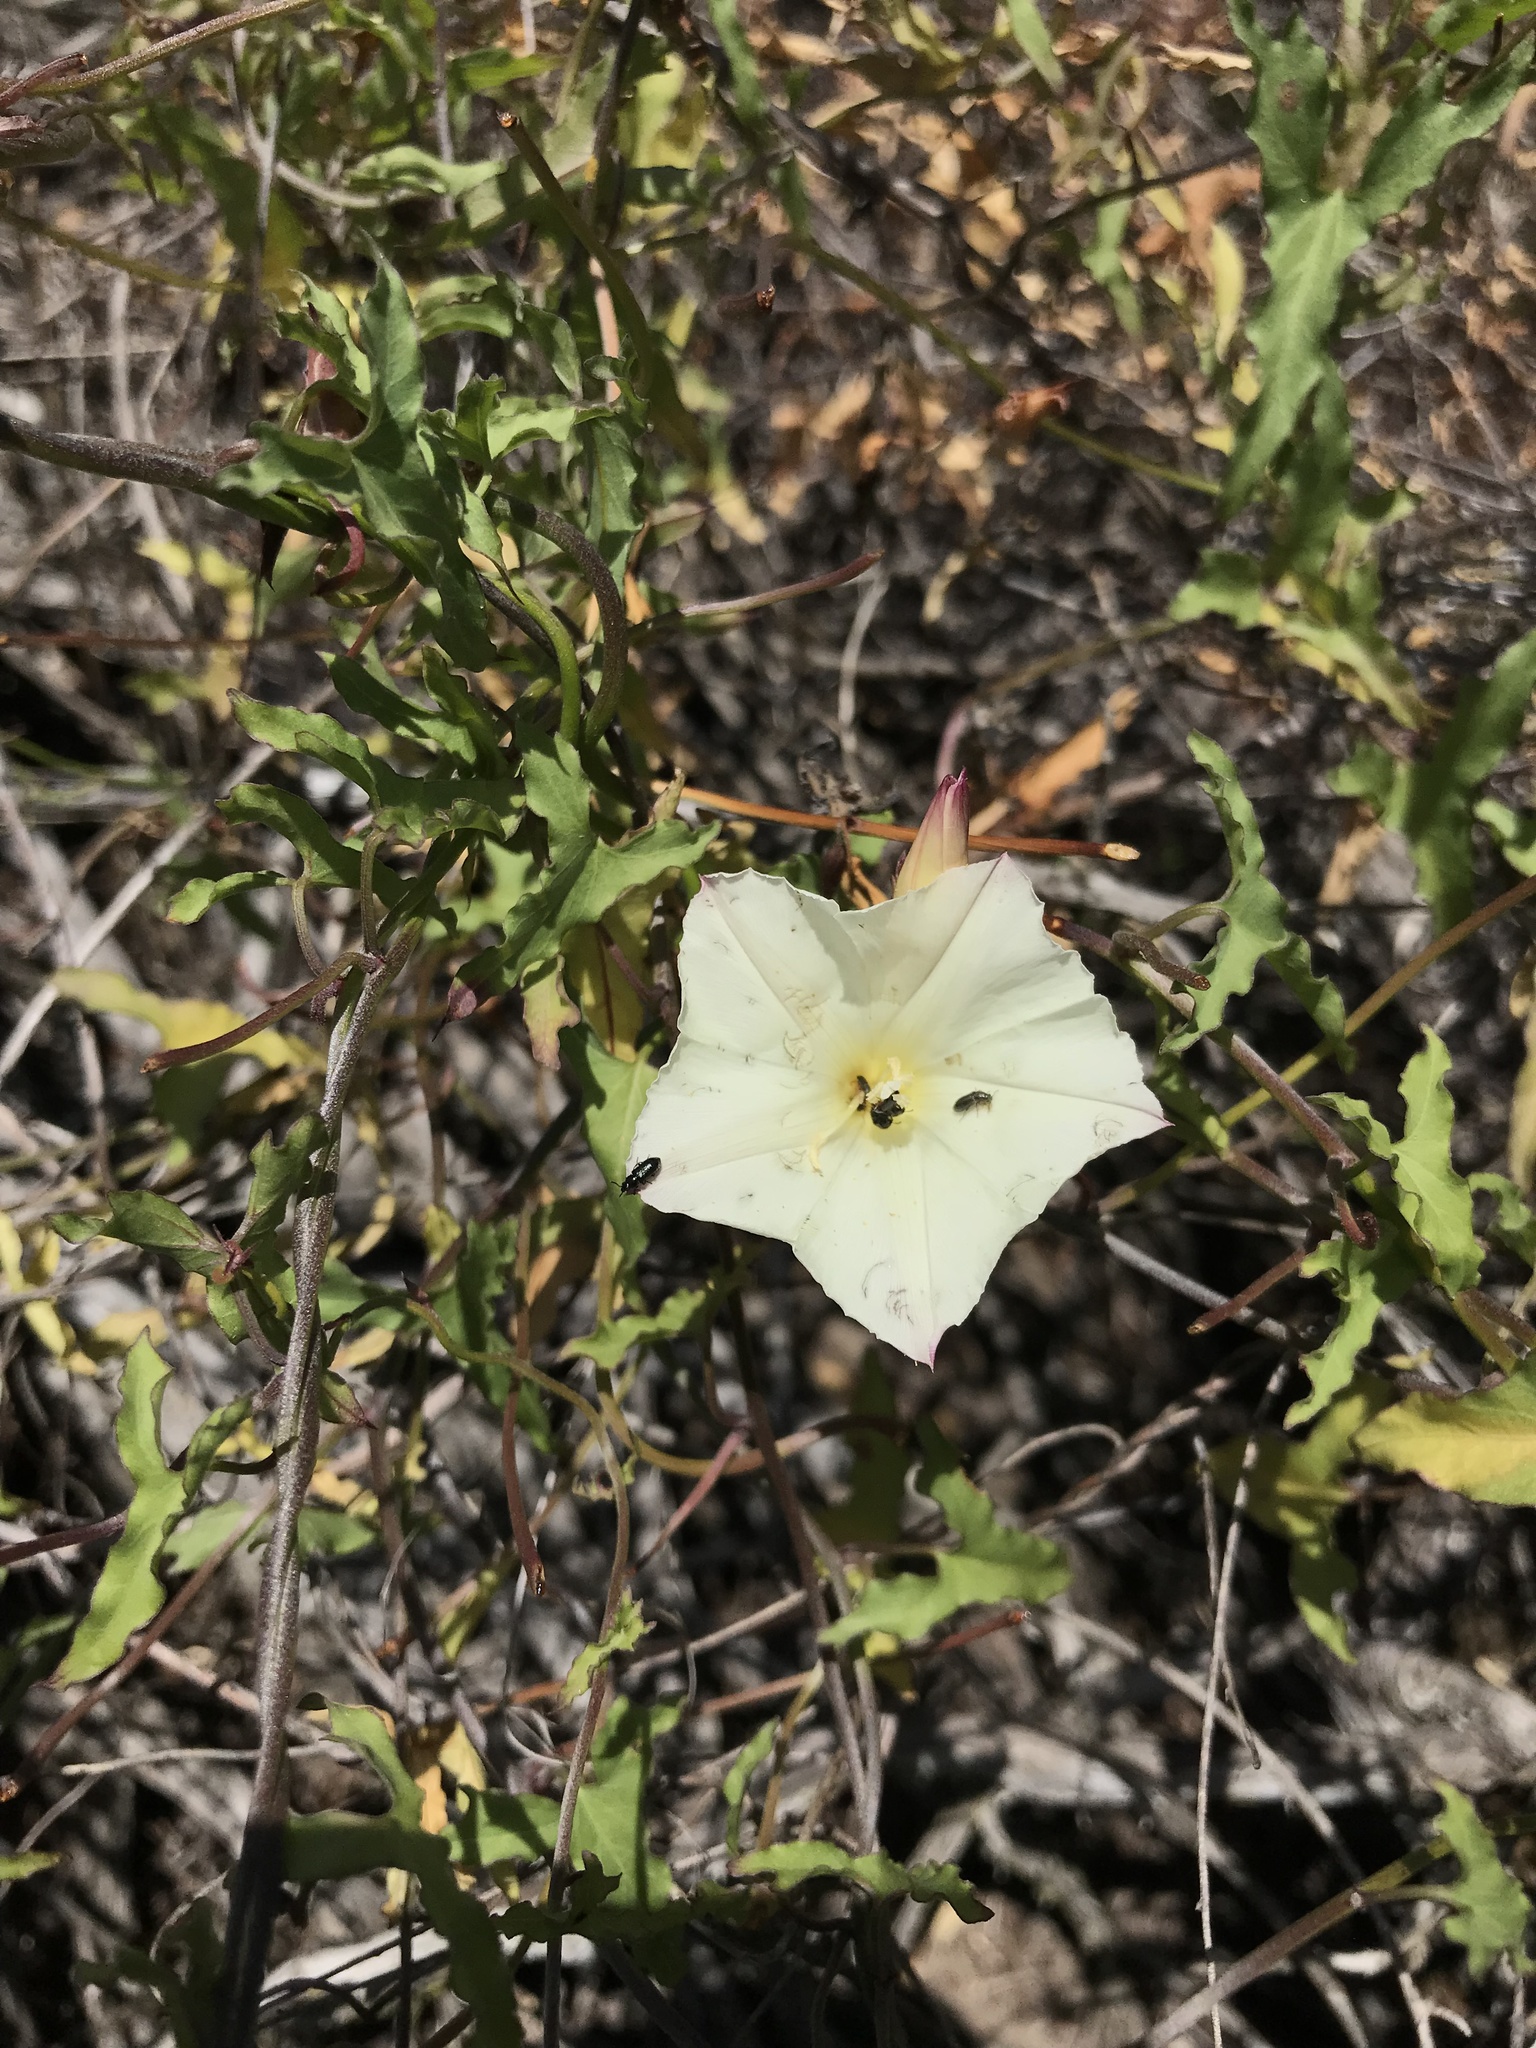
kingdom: Plantae
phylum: Tracheophyta
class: Magnoliopsida
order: Solanales
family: Convolvulaceae
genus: Calystegia
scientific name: Calystegia macrostegia
